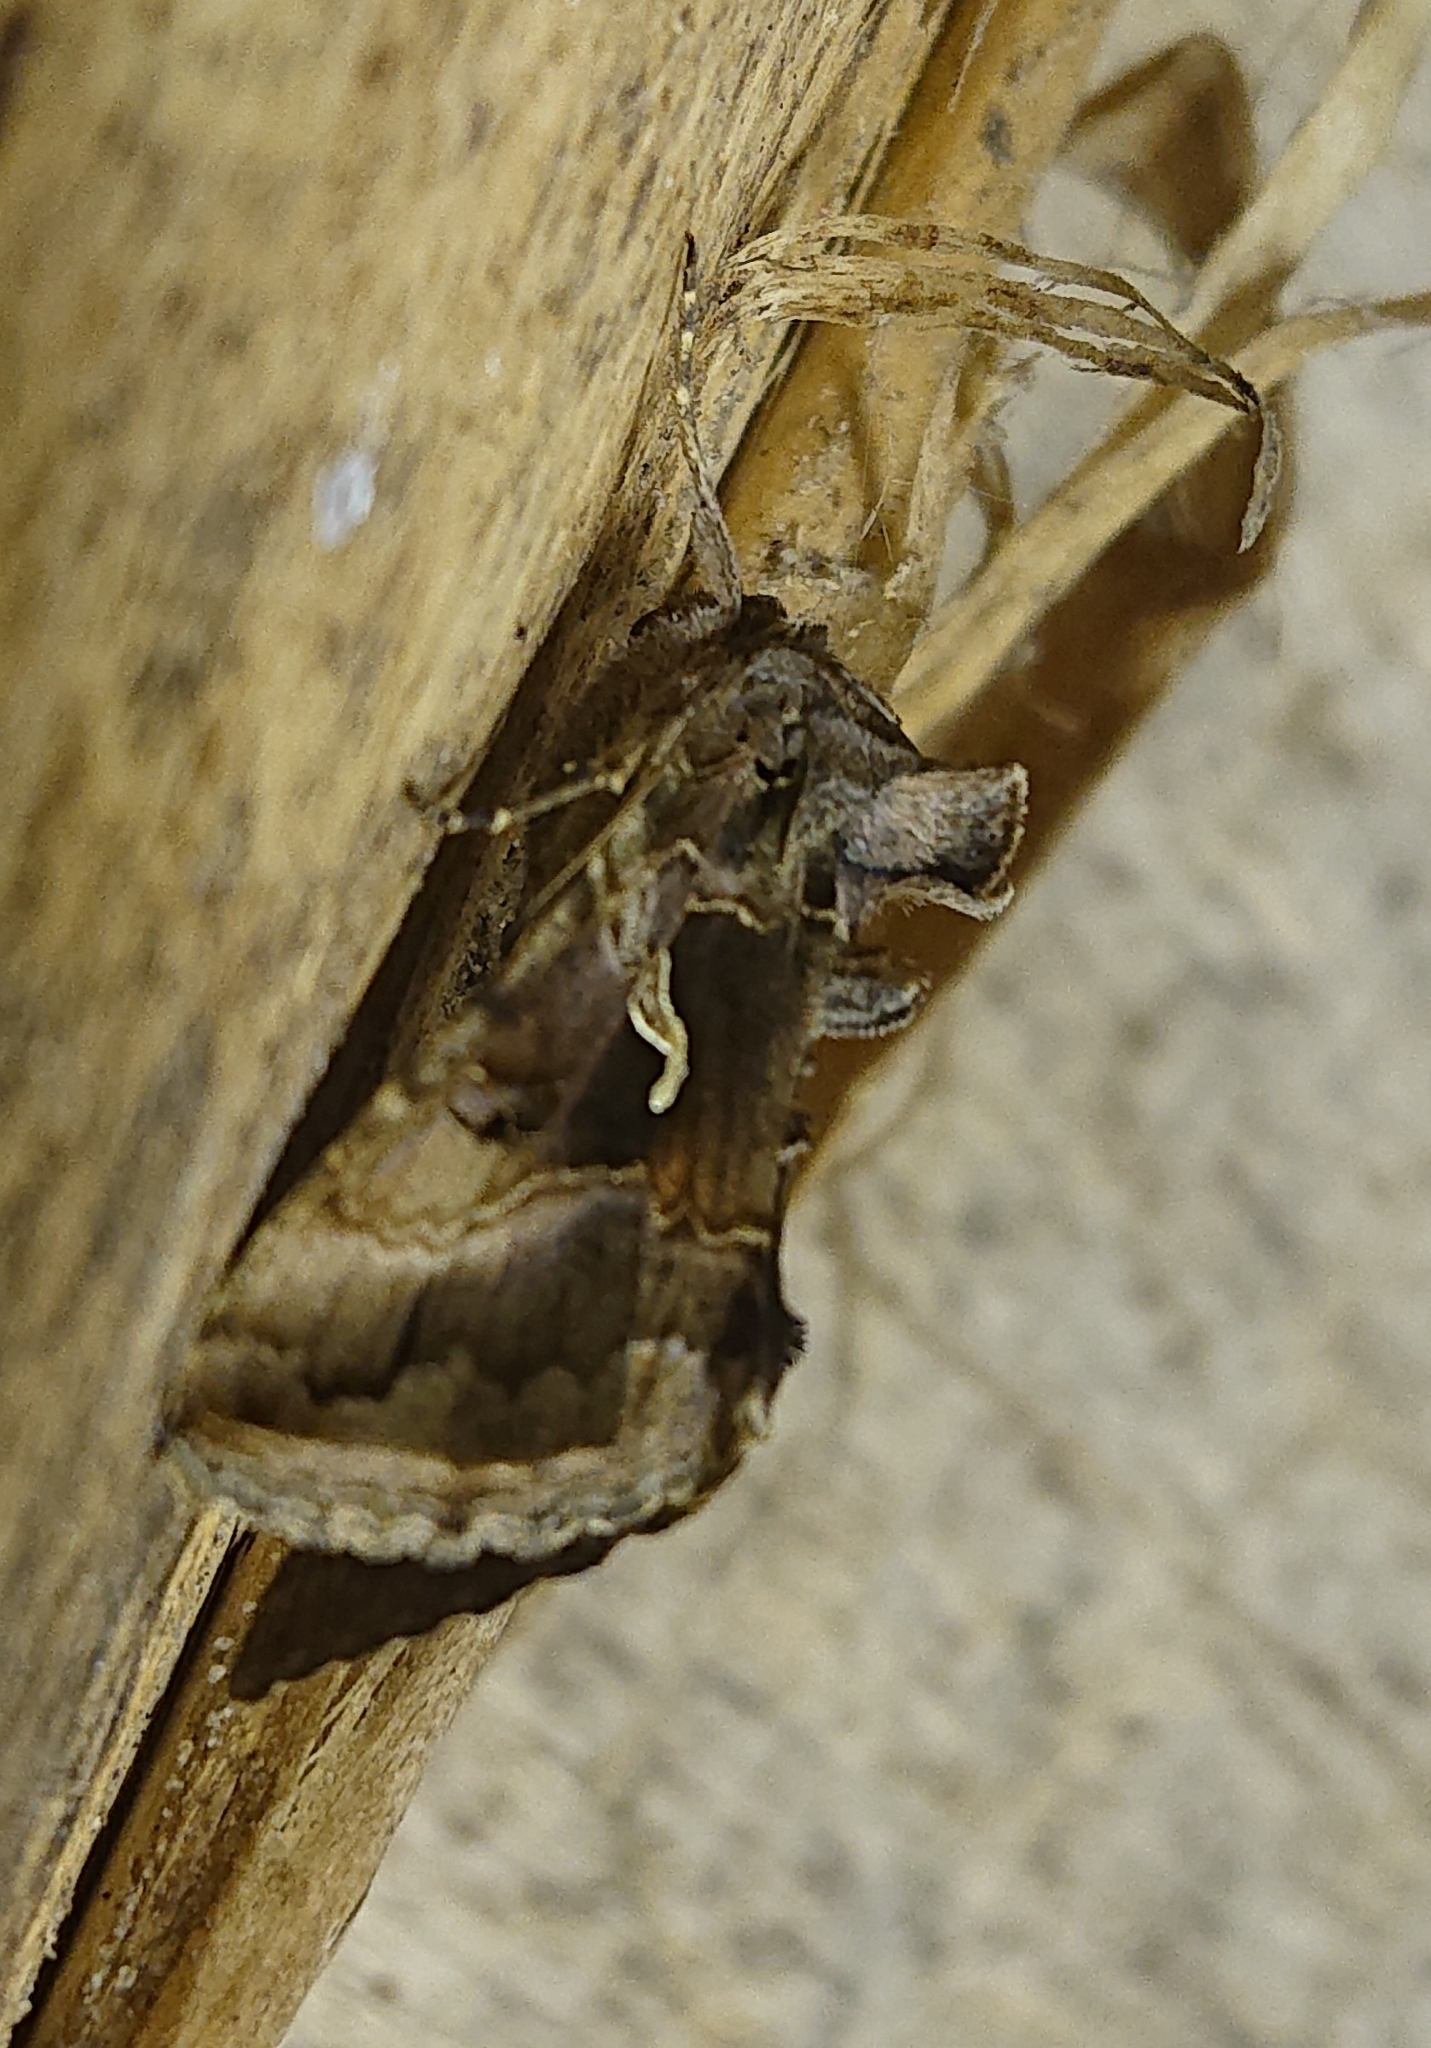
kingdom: Animalia
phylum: Arthropoda
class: Insecta
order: Lepidoptera
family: Noctuidae
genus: Autographa
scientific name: Autographa gamma
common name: Silver y
